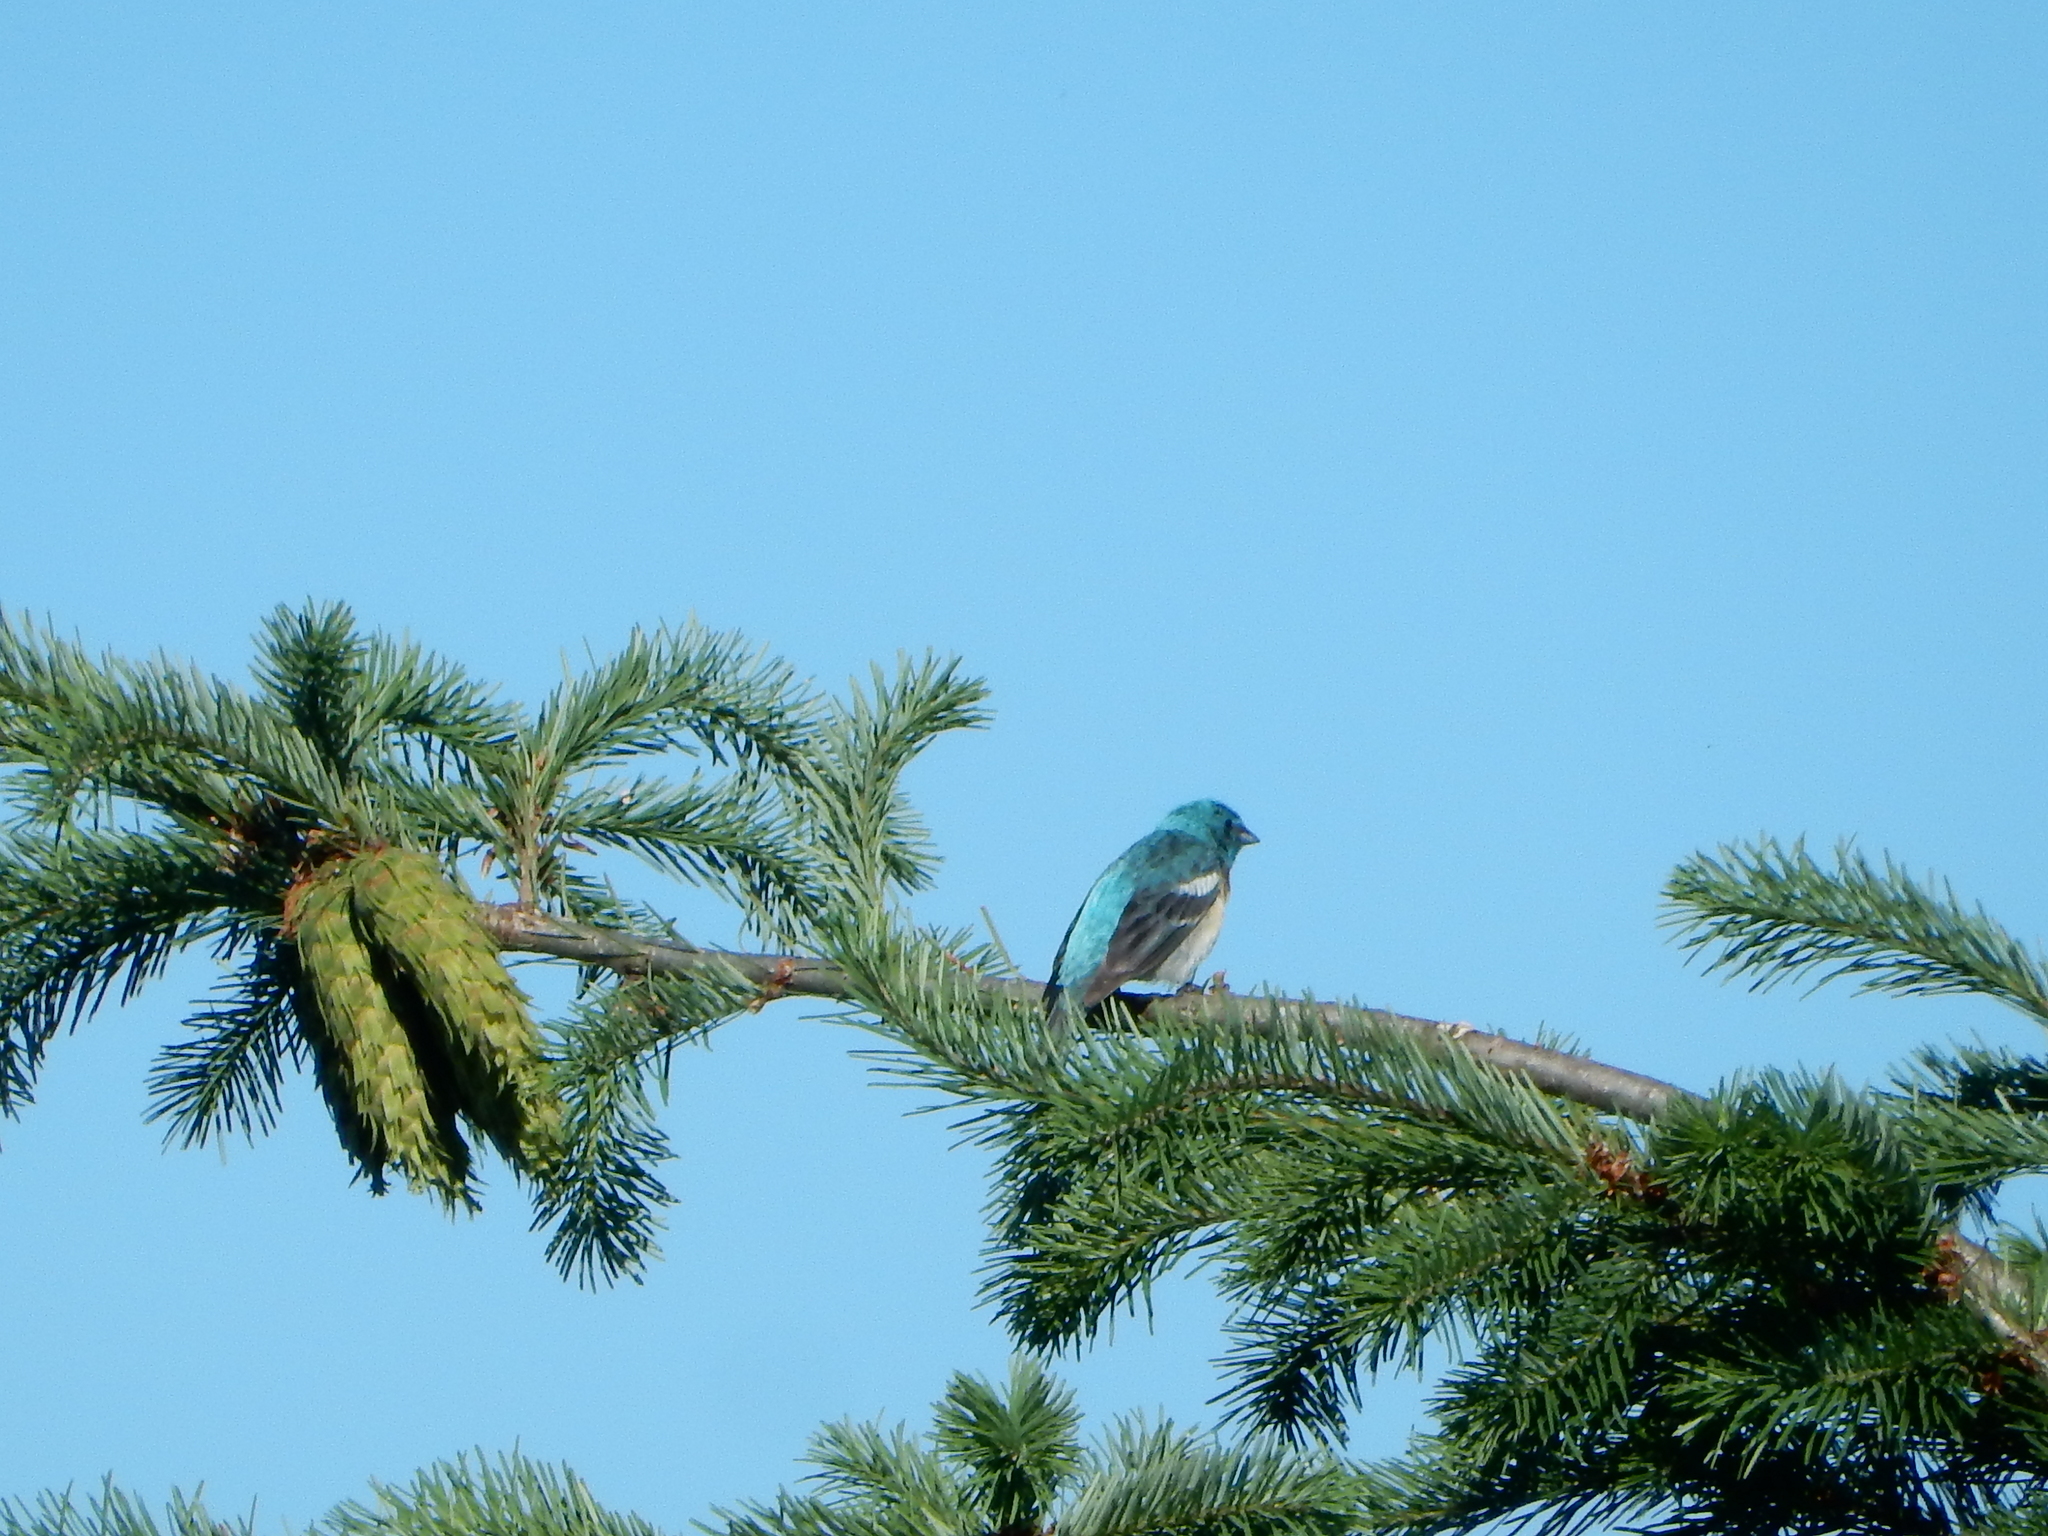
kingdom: Animalia
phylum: Chordata
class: Aves
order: Passeriformes
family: Cardinalidae
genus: Passerina
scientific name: Passerina amoena
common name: Lazuli bunting
